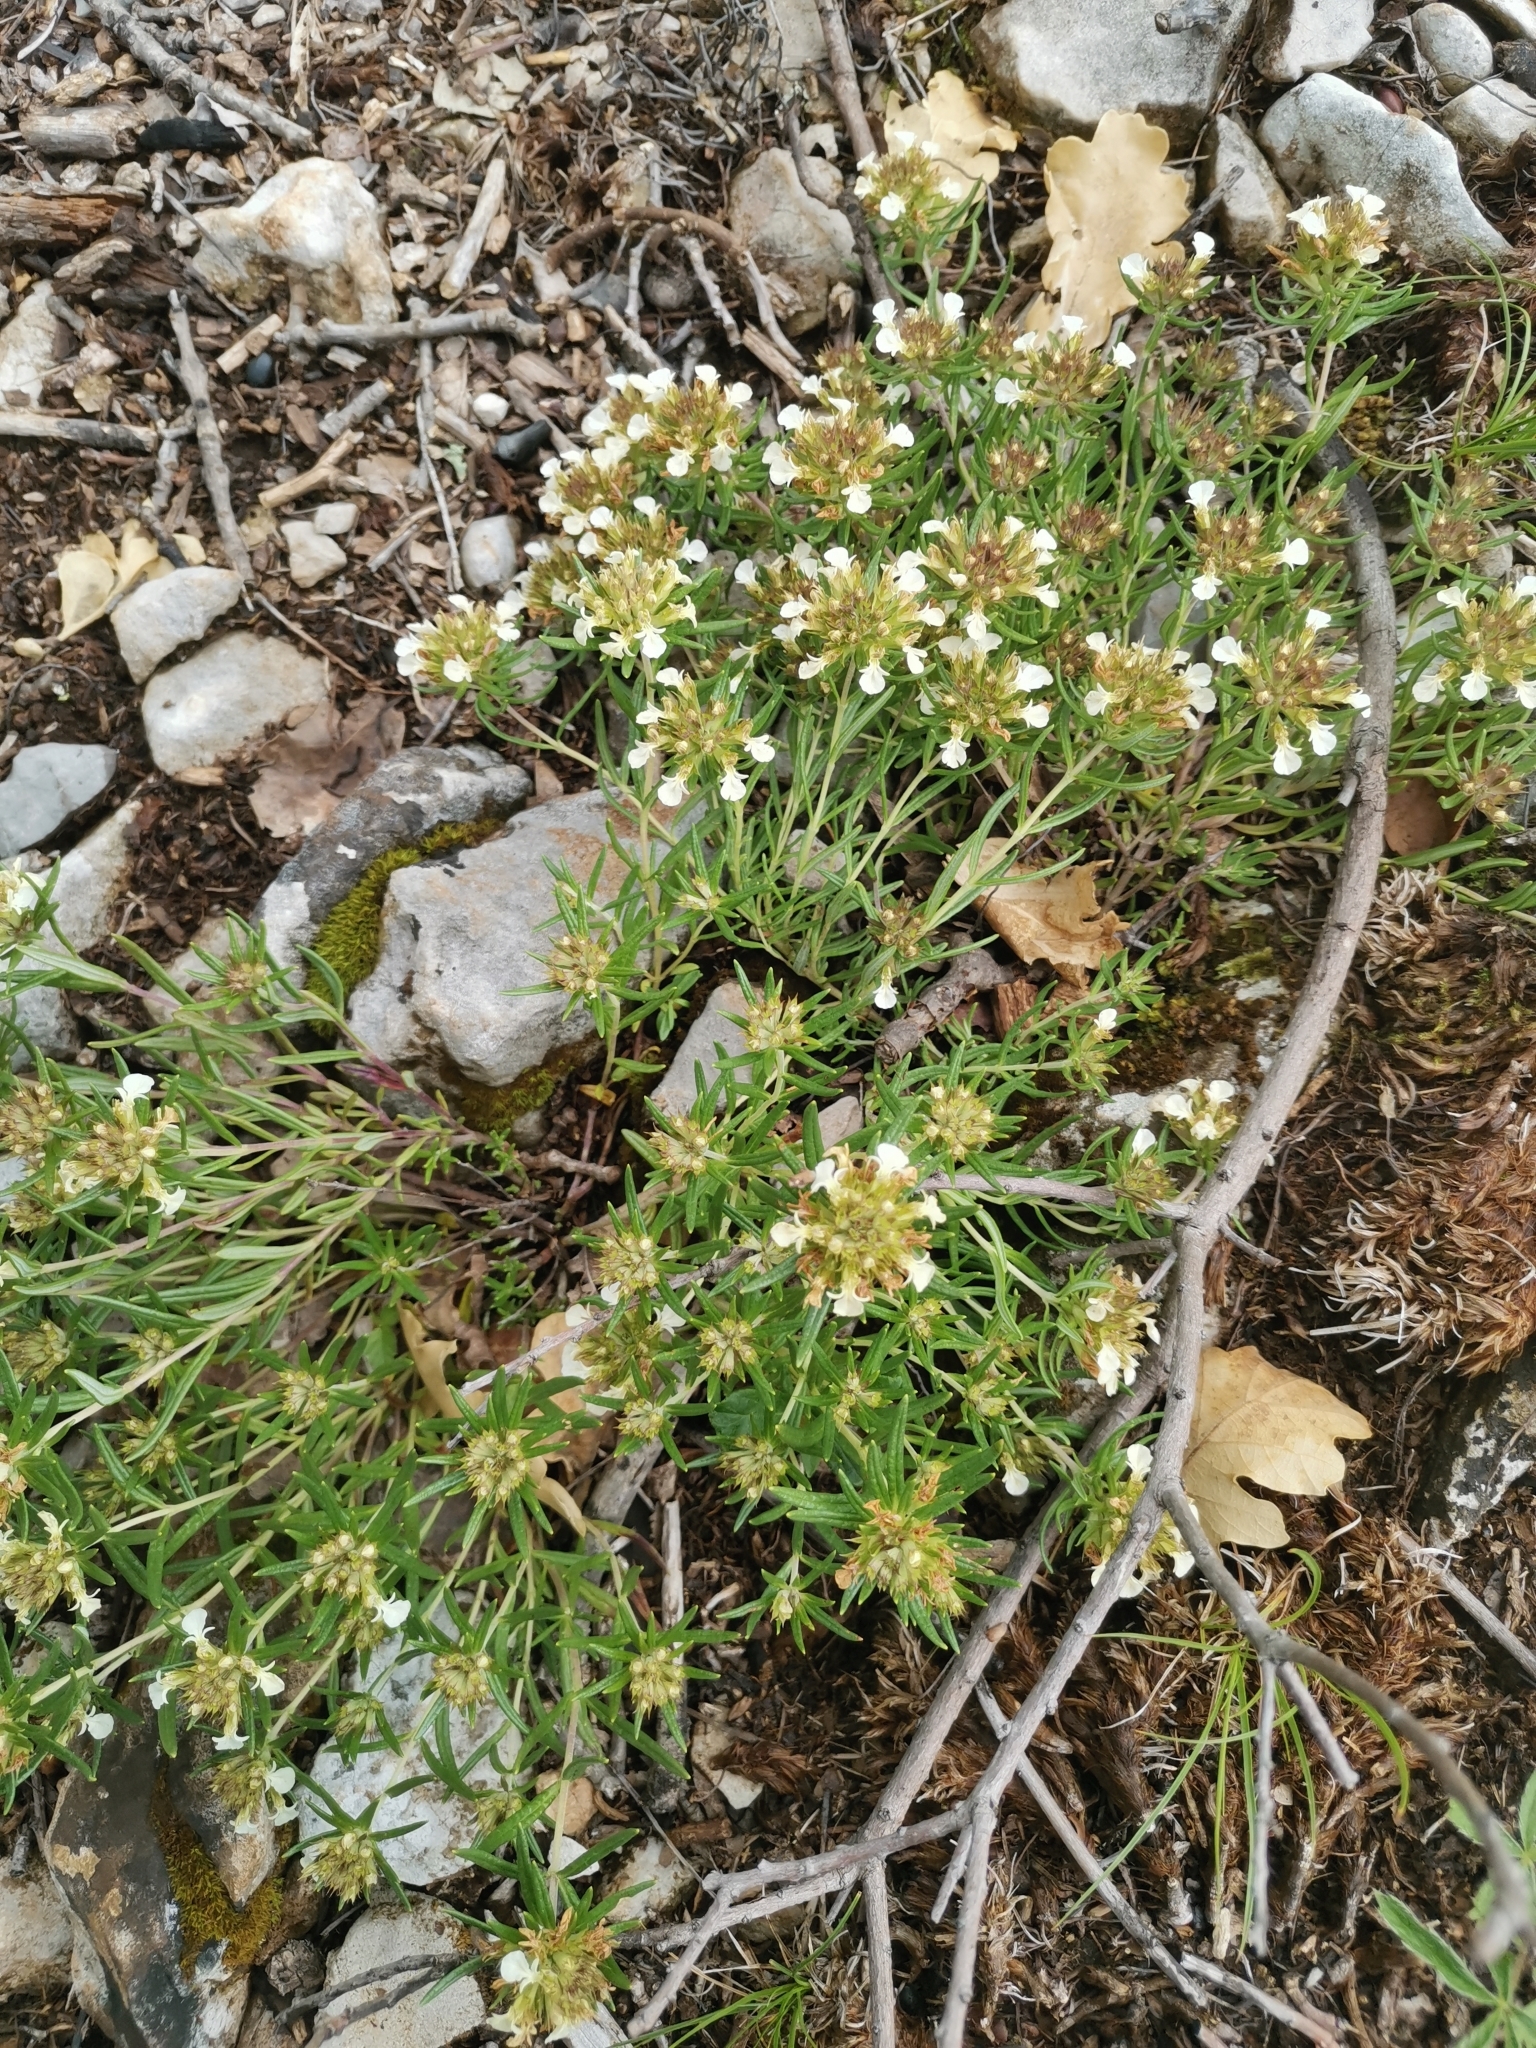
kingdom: Plantae
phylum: Tracheophyta
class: Magnoliopsida
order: Lamiales
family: Lamiaceae
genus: Teucrium
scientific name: Teucrium montanum
